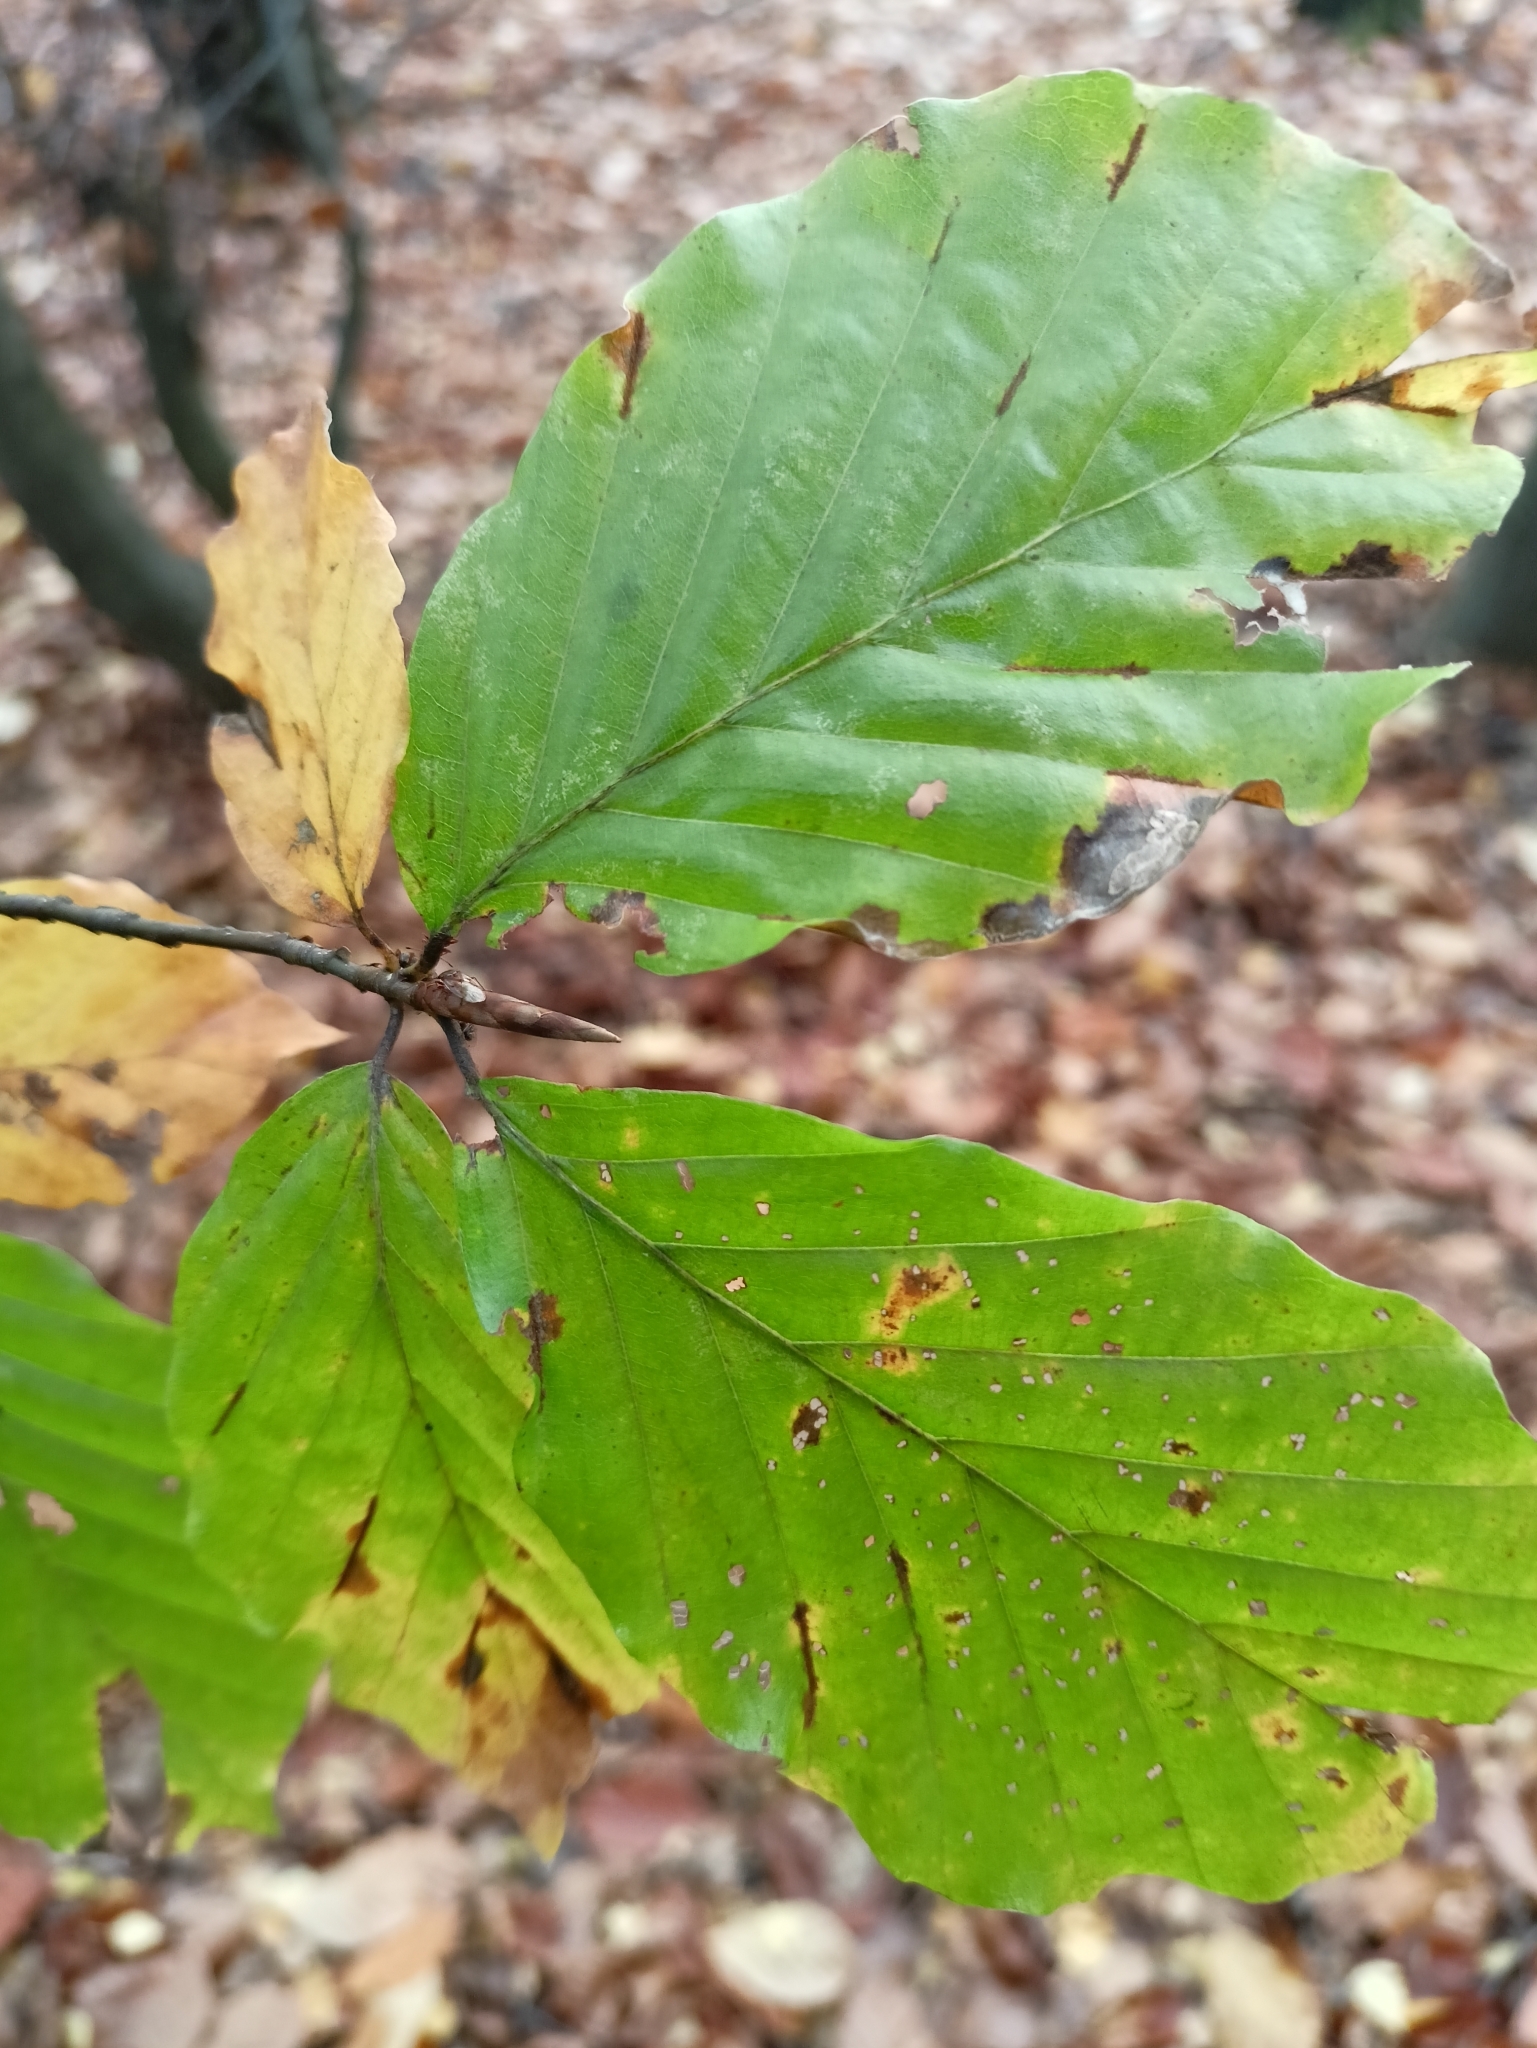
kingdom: Plantae
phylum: Tracheophyta
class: Magnoliopsida
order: Fagales
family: Fagaceae
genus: Fagus
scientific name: Fagus sylvatica
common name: Beech
